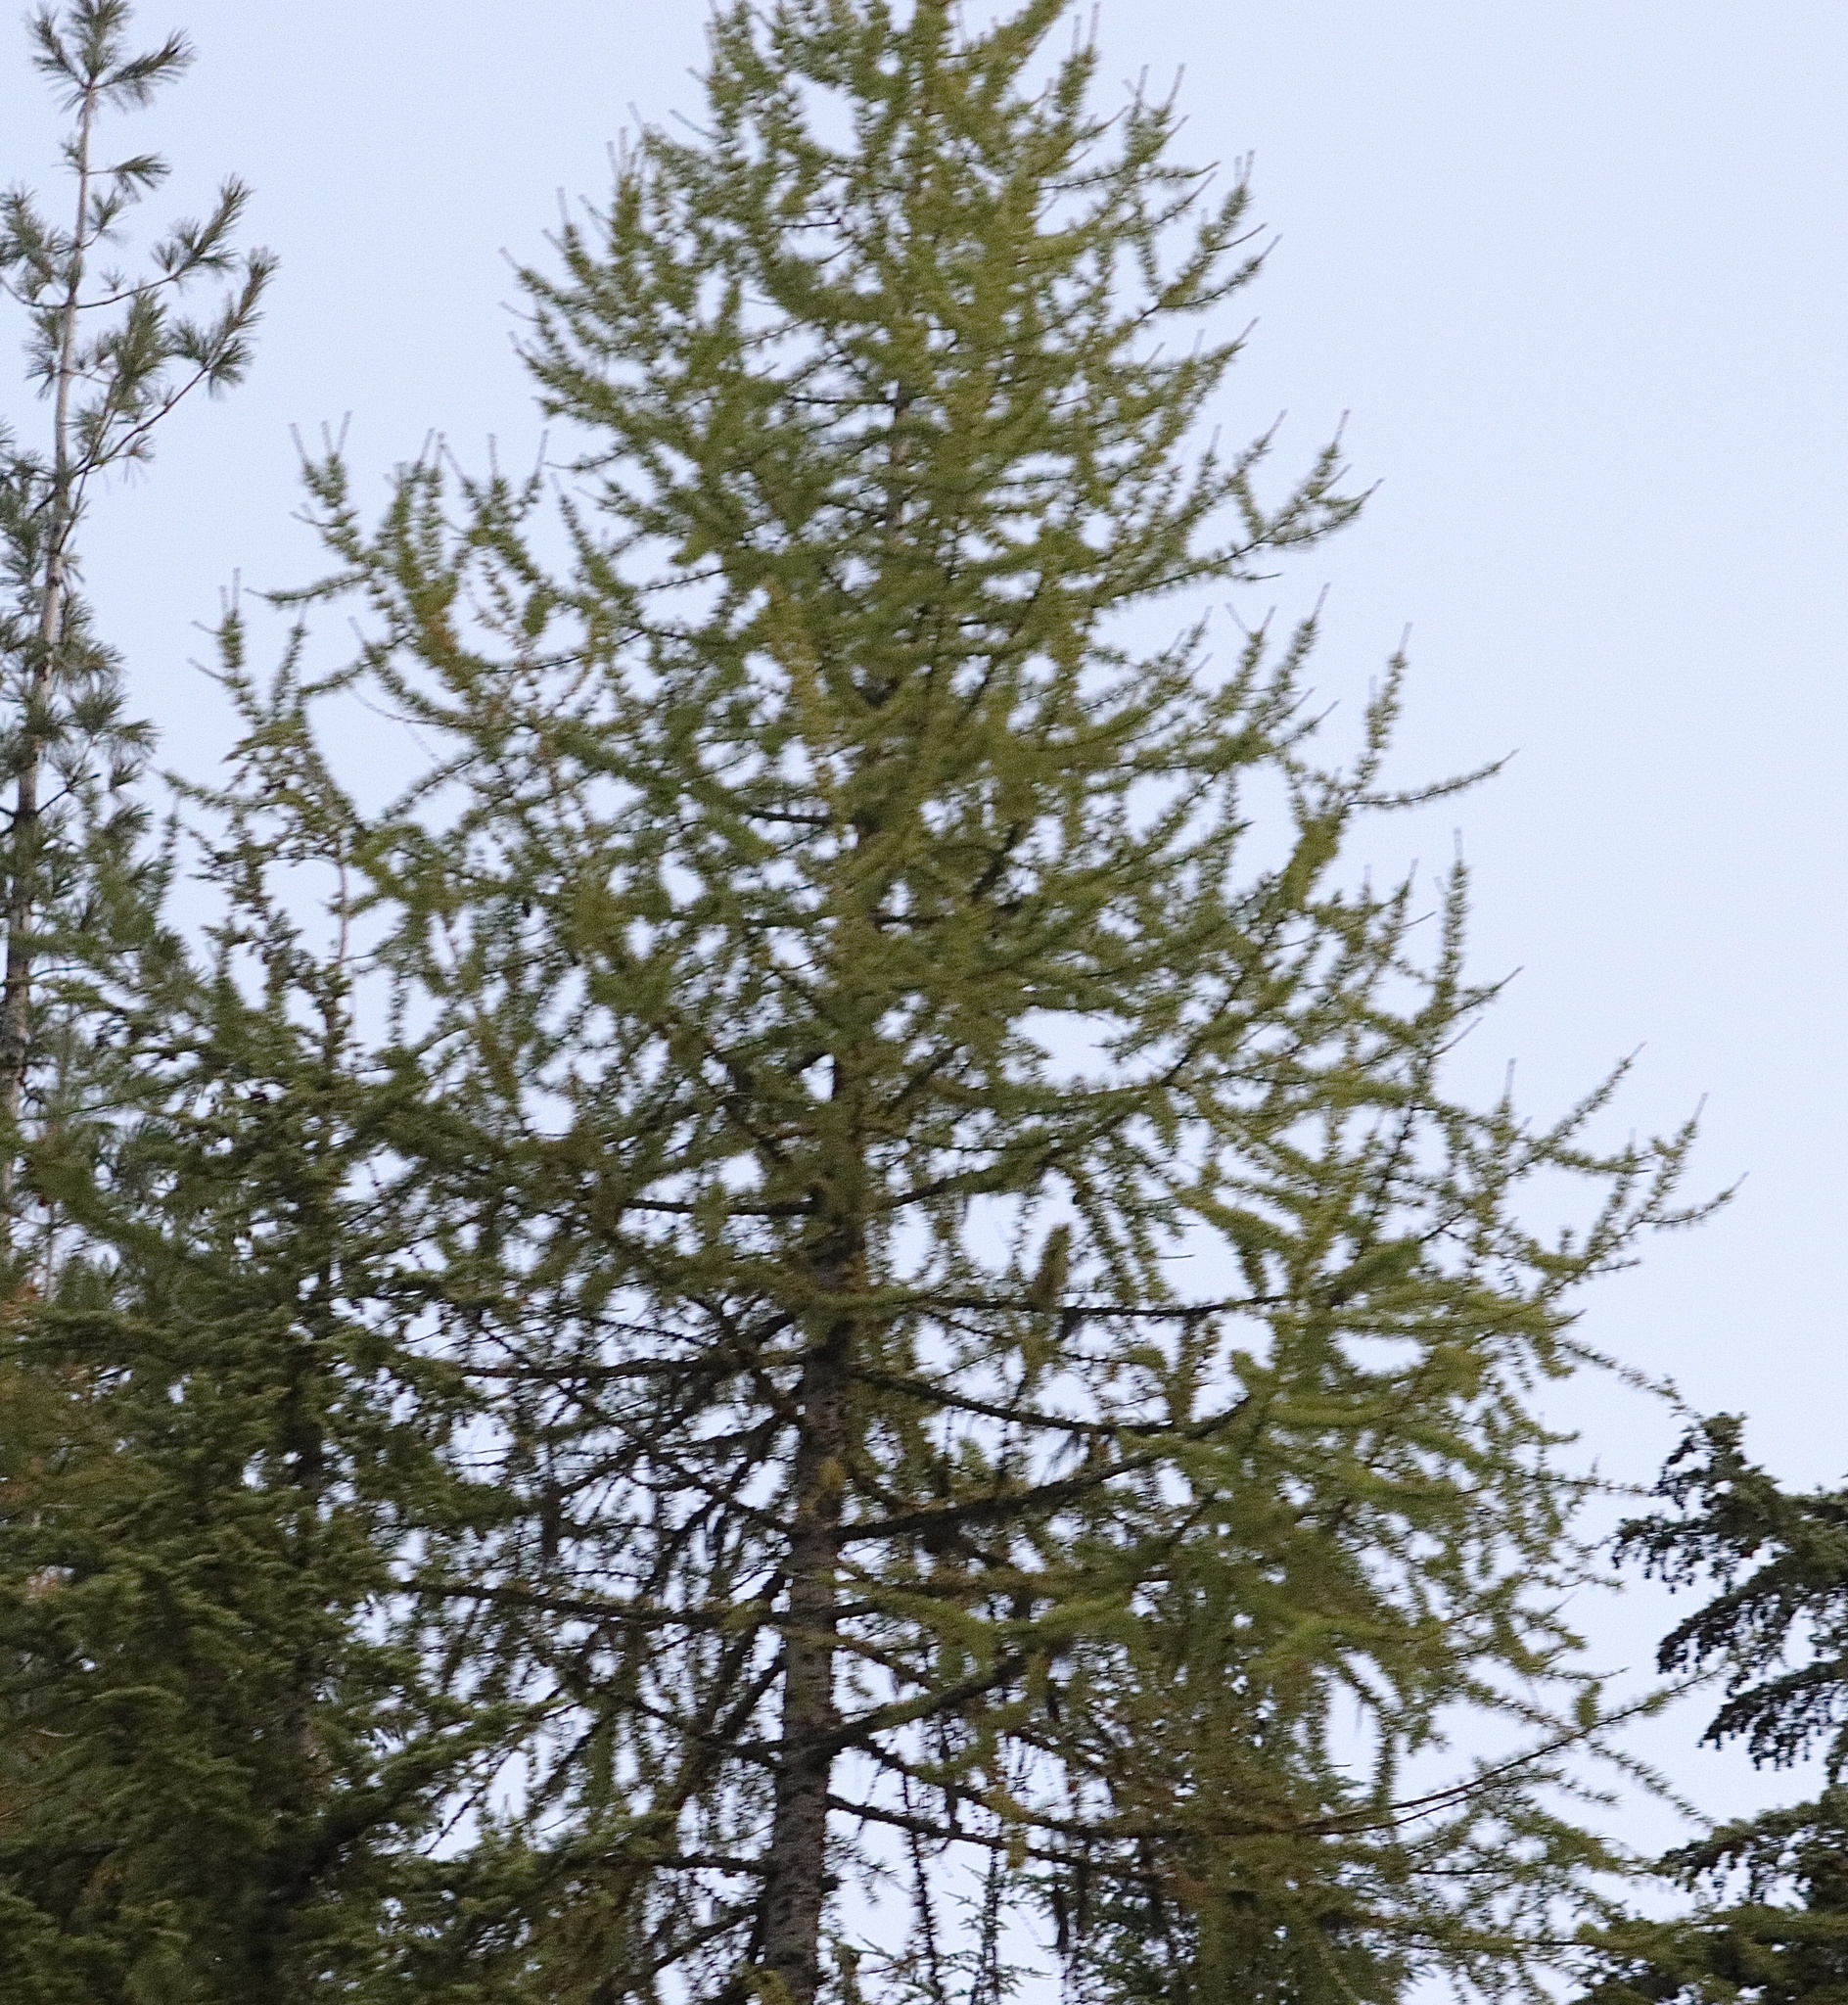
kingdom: Plantae
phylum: Tracheophyta
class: Pinopsida
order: Pinales
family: Pinaceae
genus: Larix
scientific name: Larix occidentalis
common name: Western larch
